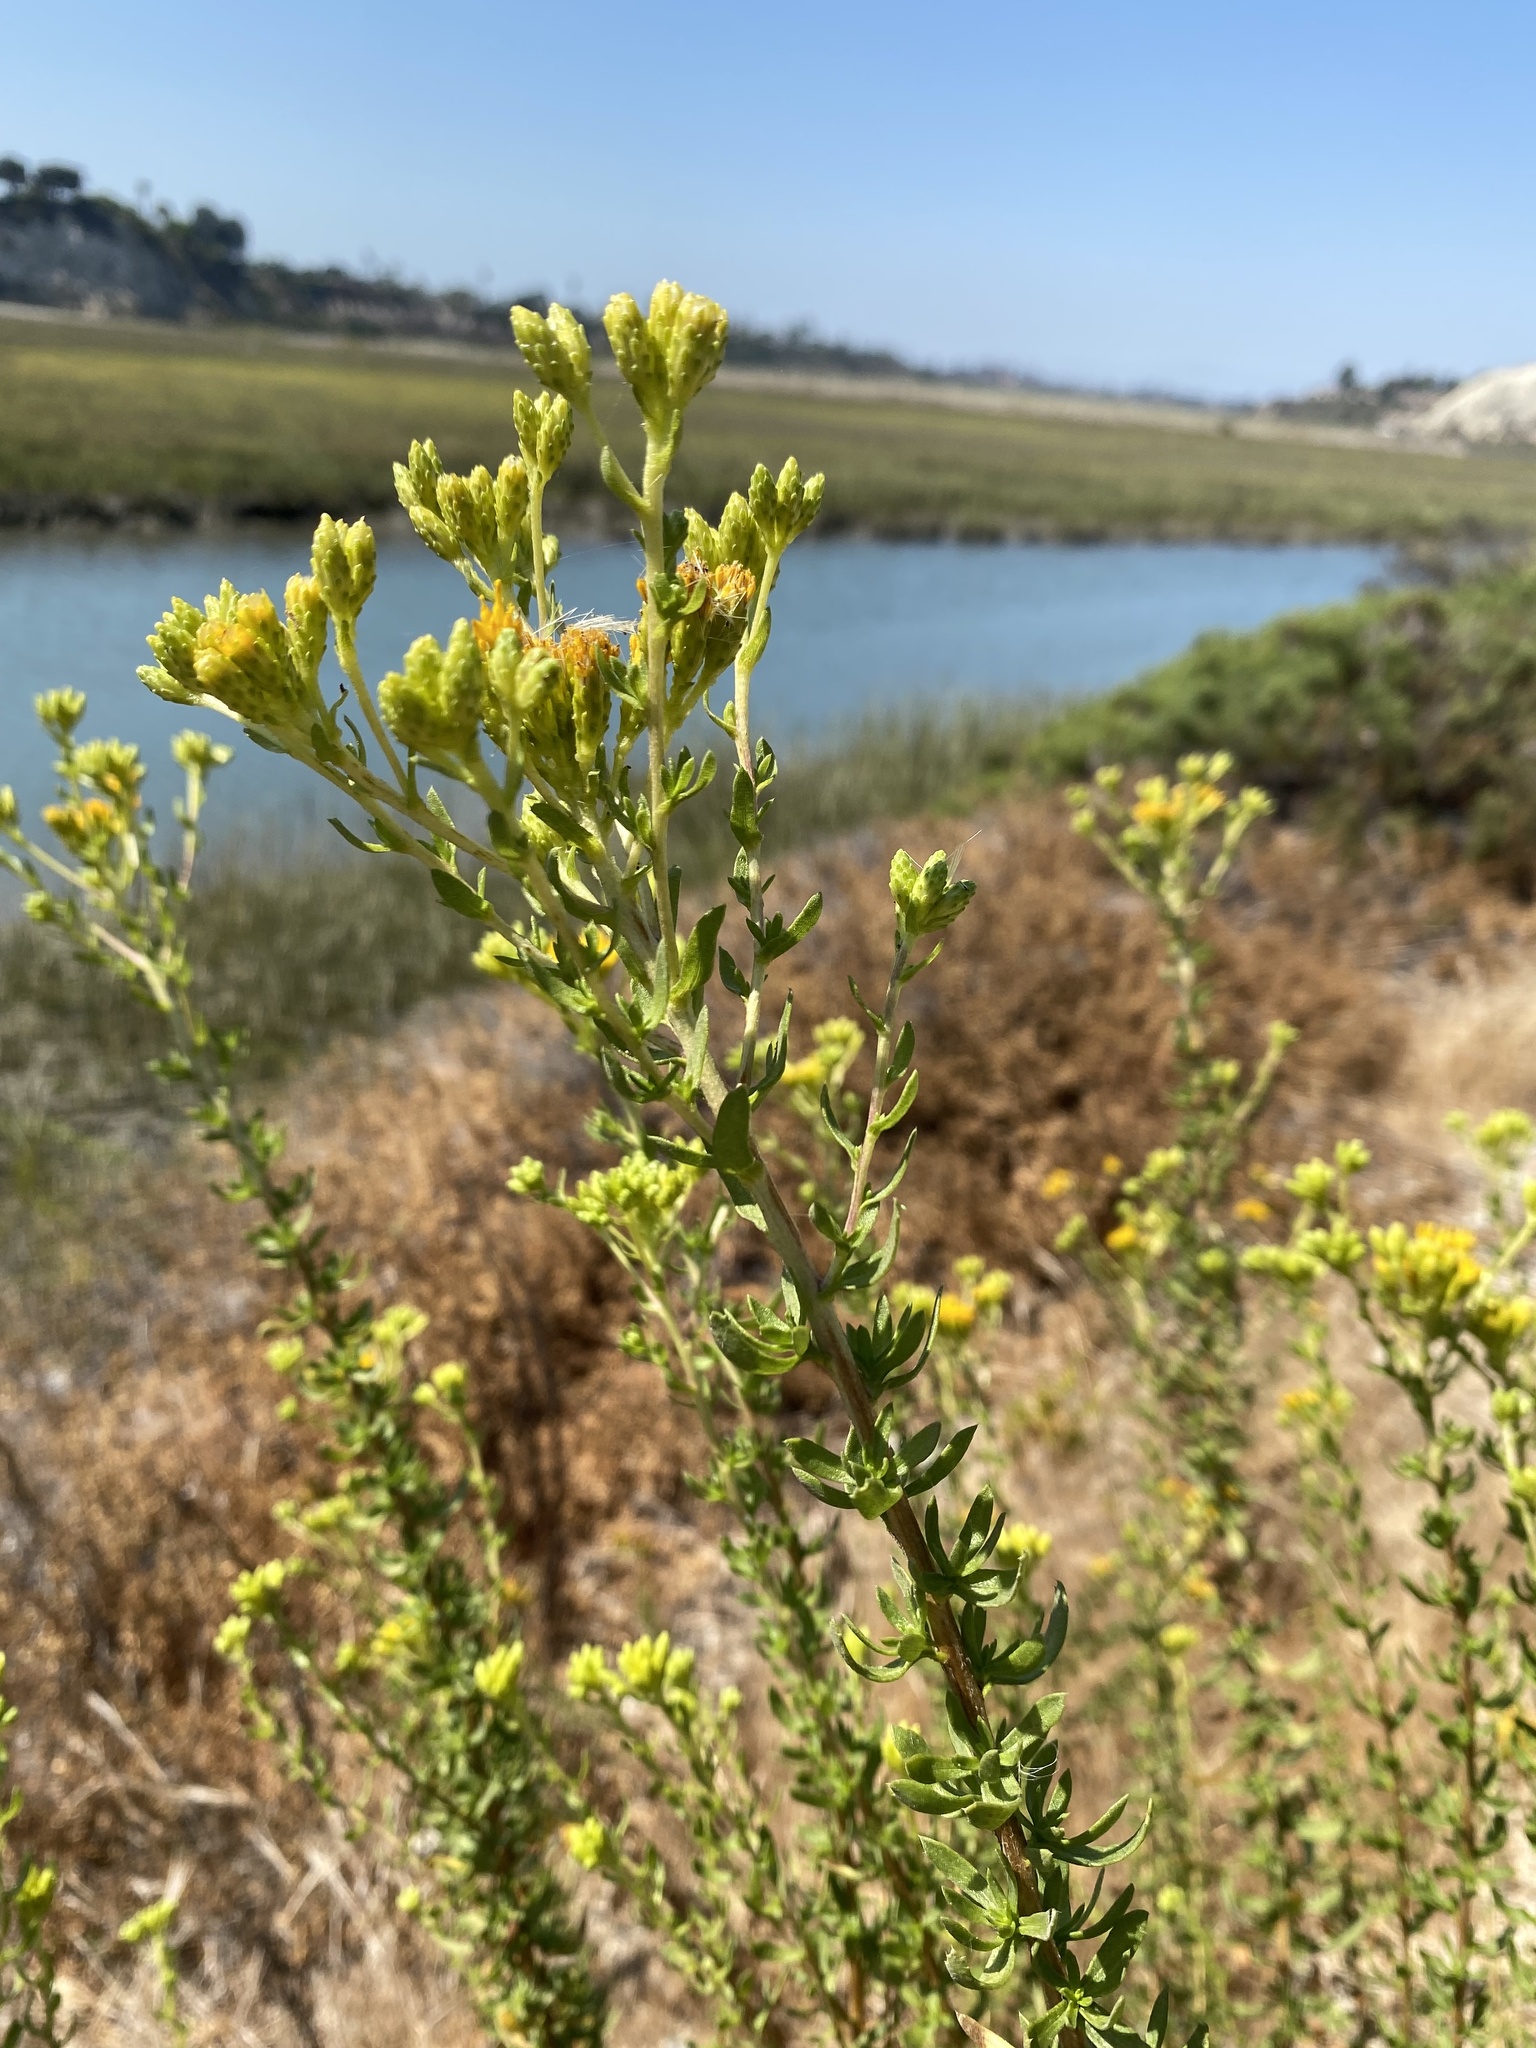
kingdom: Plantae
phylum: Tracheophyta
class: Magnoliopsida
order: Asterales
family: Asteraceae
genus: Isocoma
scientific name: Isocoma menziesii
